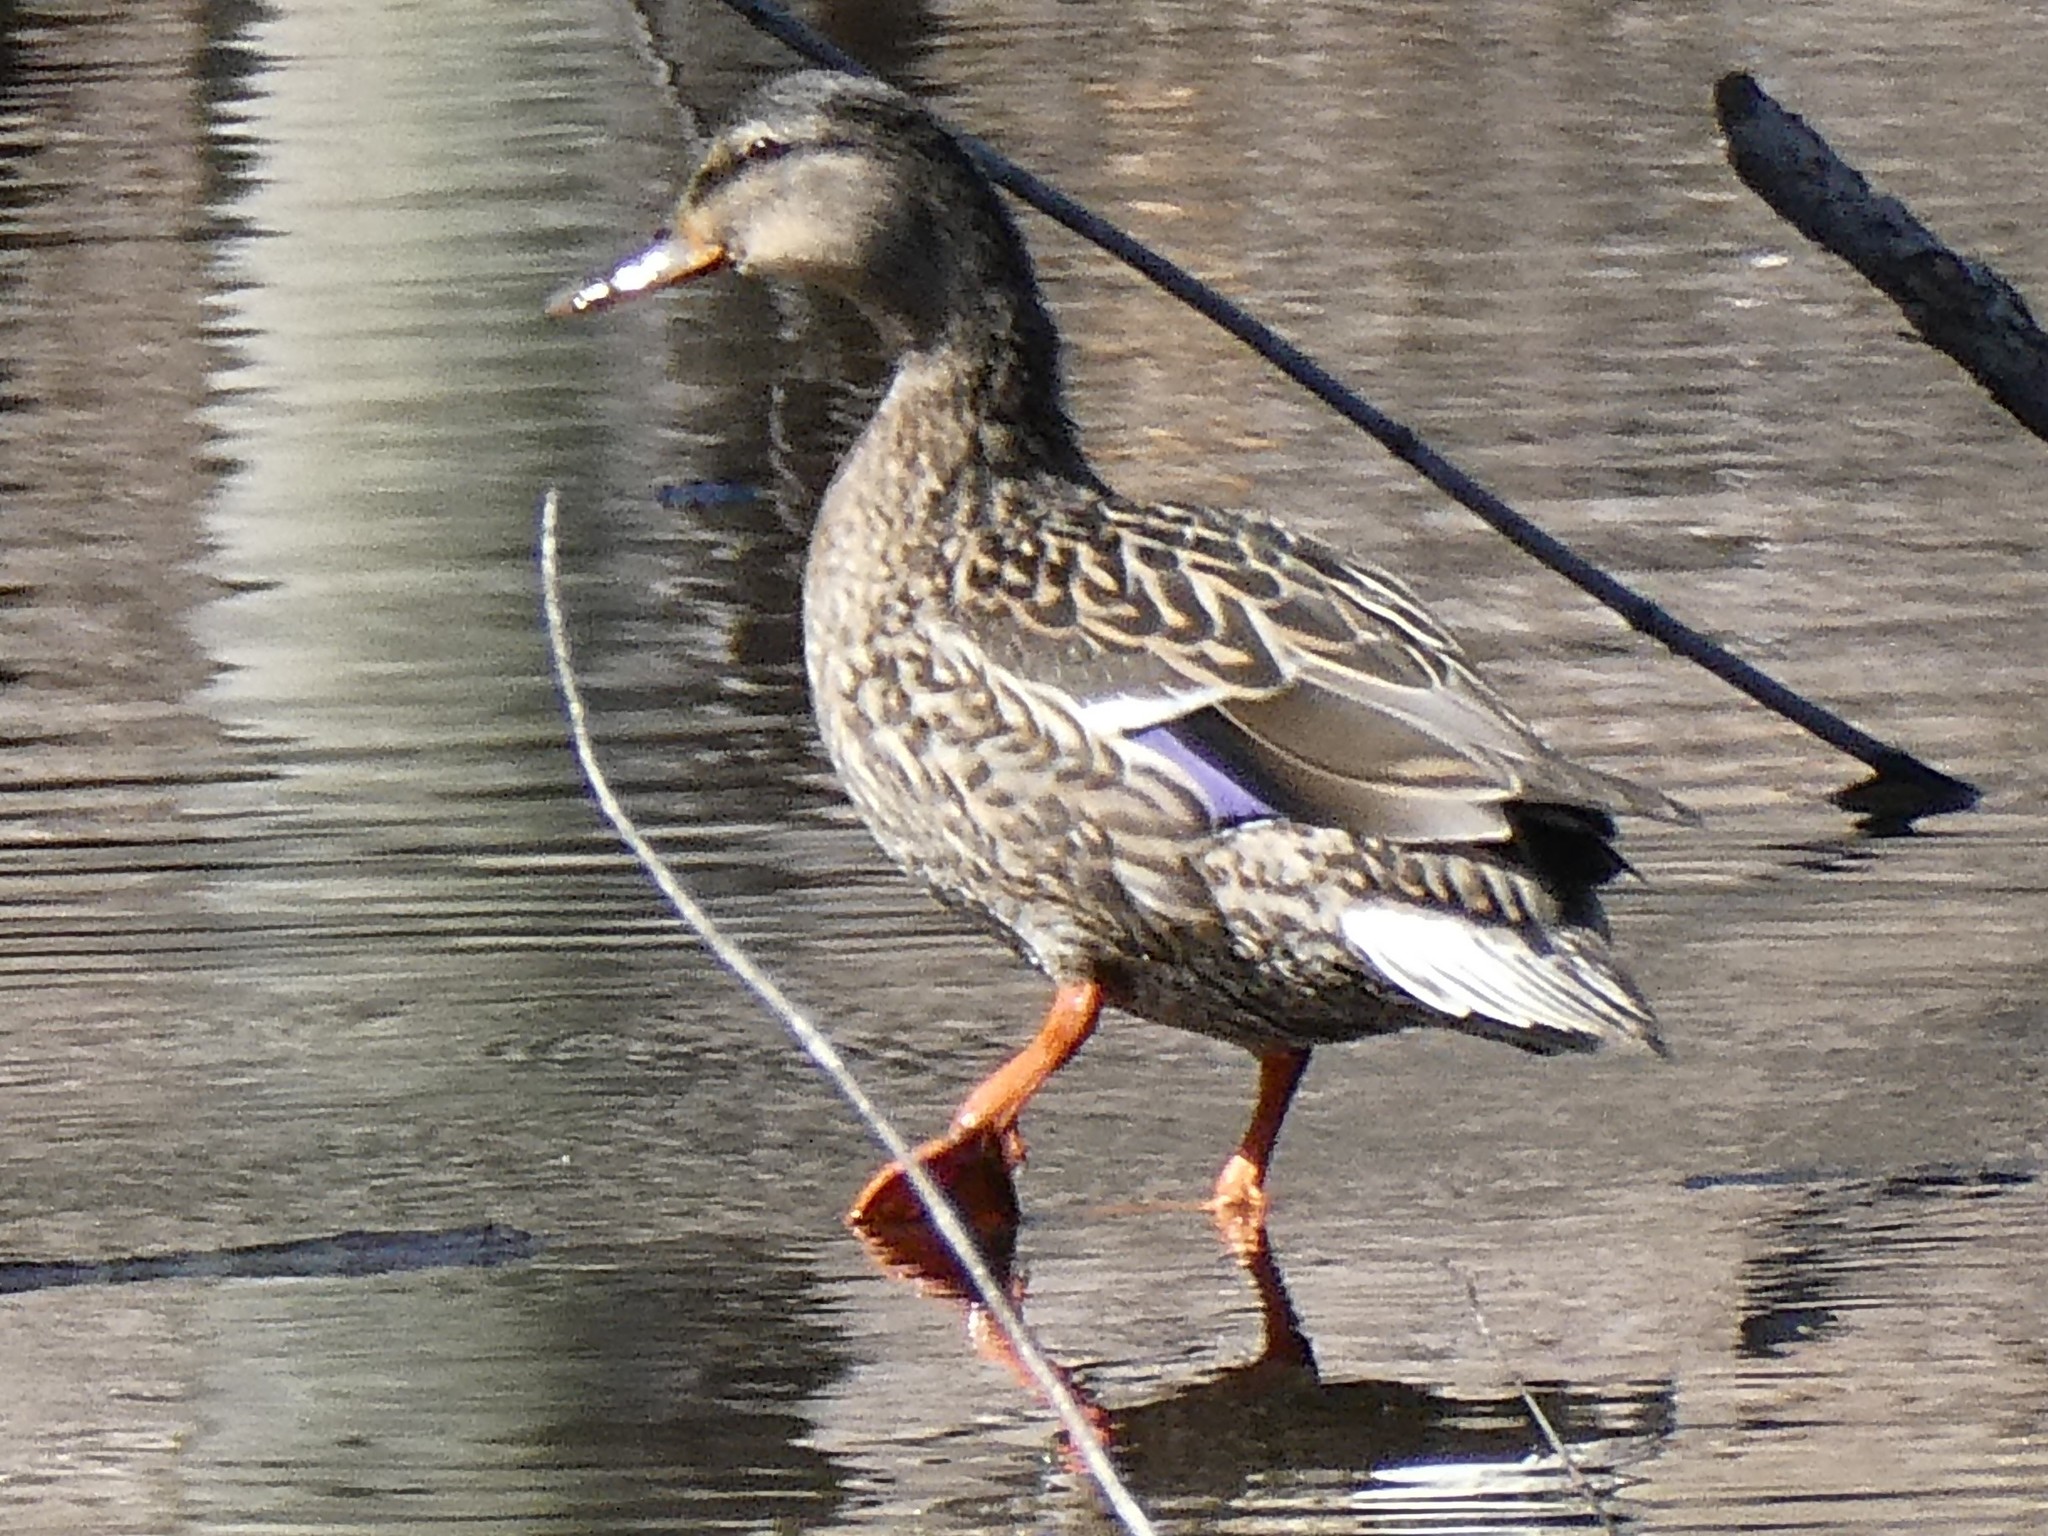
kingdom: Animalia
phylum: Chordata
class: Aves
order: Anseriformes
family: Anatidae
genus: Anas
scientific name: Anas platyrhynchos
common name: Mallard
